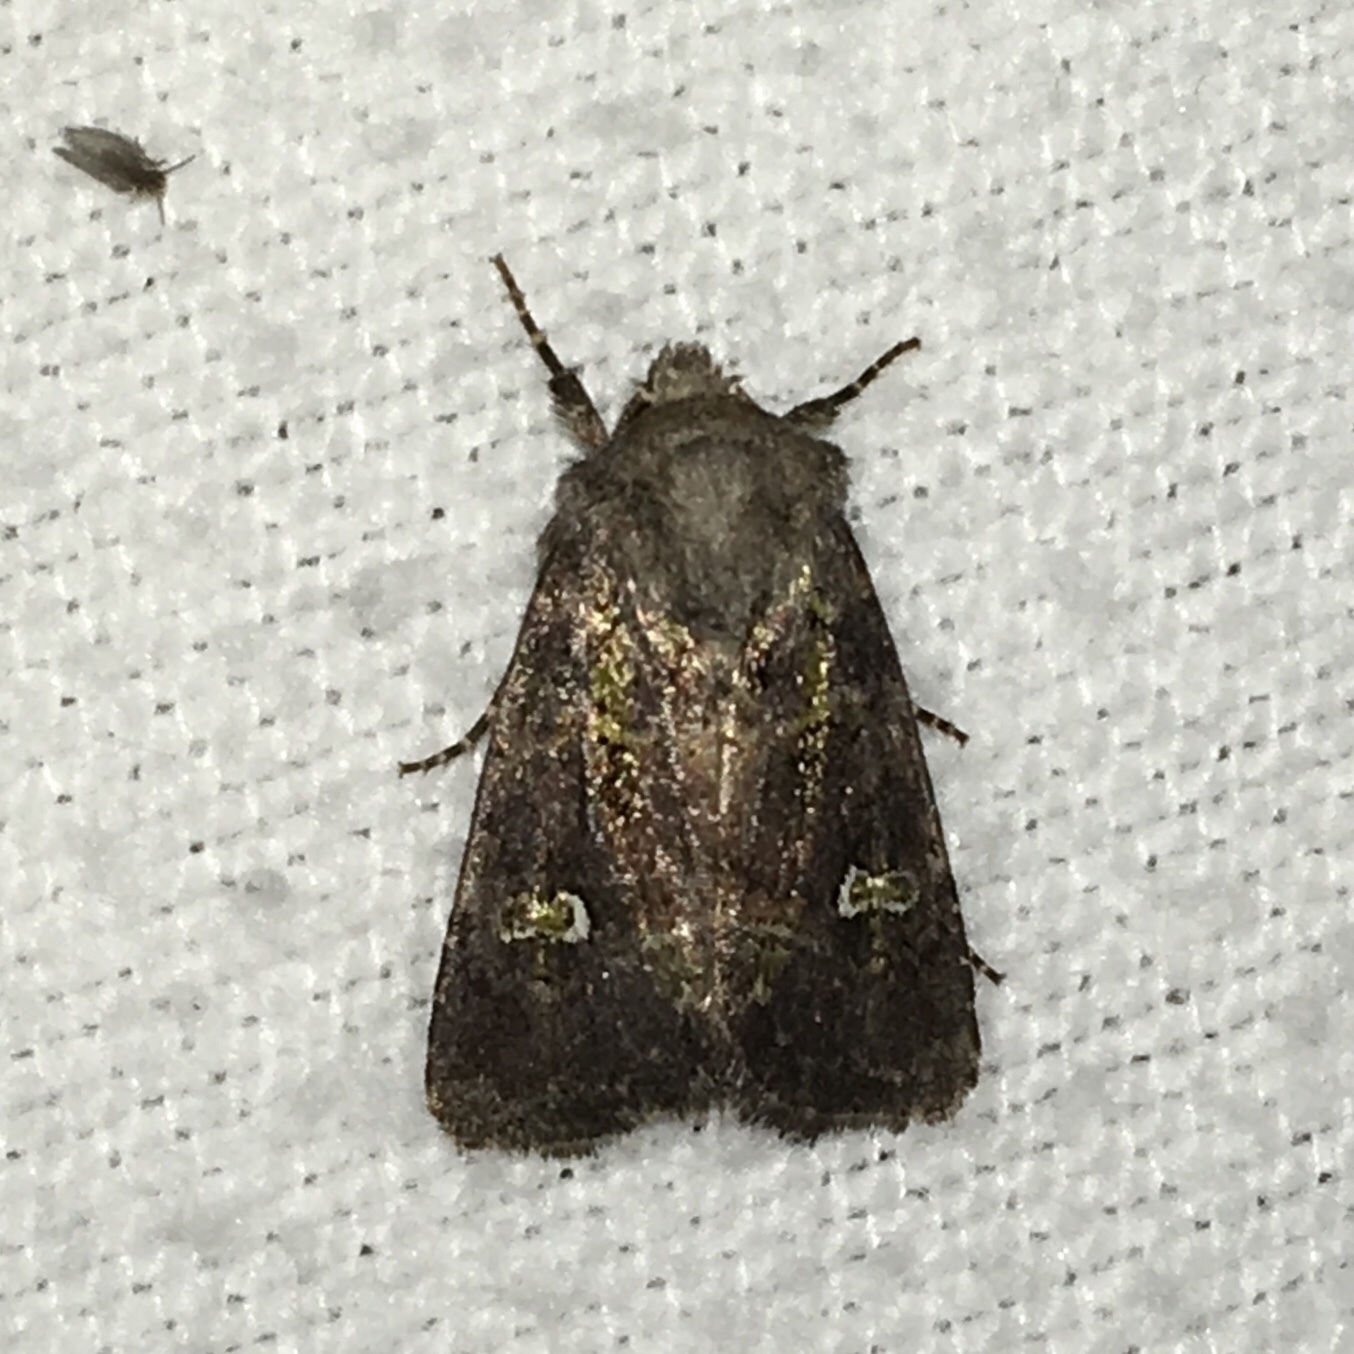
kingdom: Animalia
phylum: Arthropoda
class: Insecta
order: Lepidoptera
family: Noctuidae
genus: Lacinipolia
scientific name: Lacinipolia renigera
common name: Kidney-spotted minor
